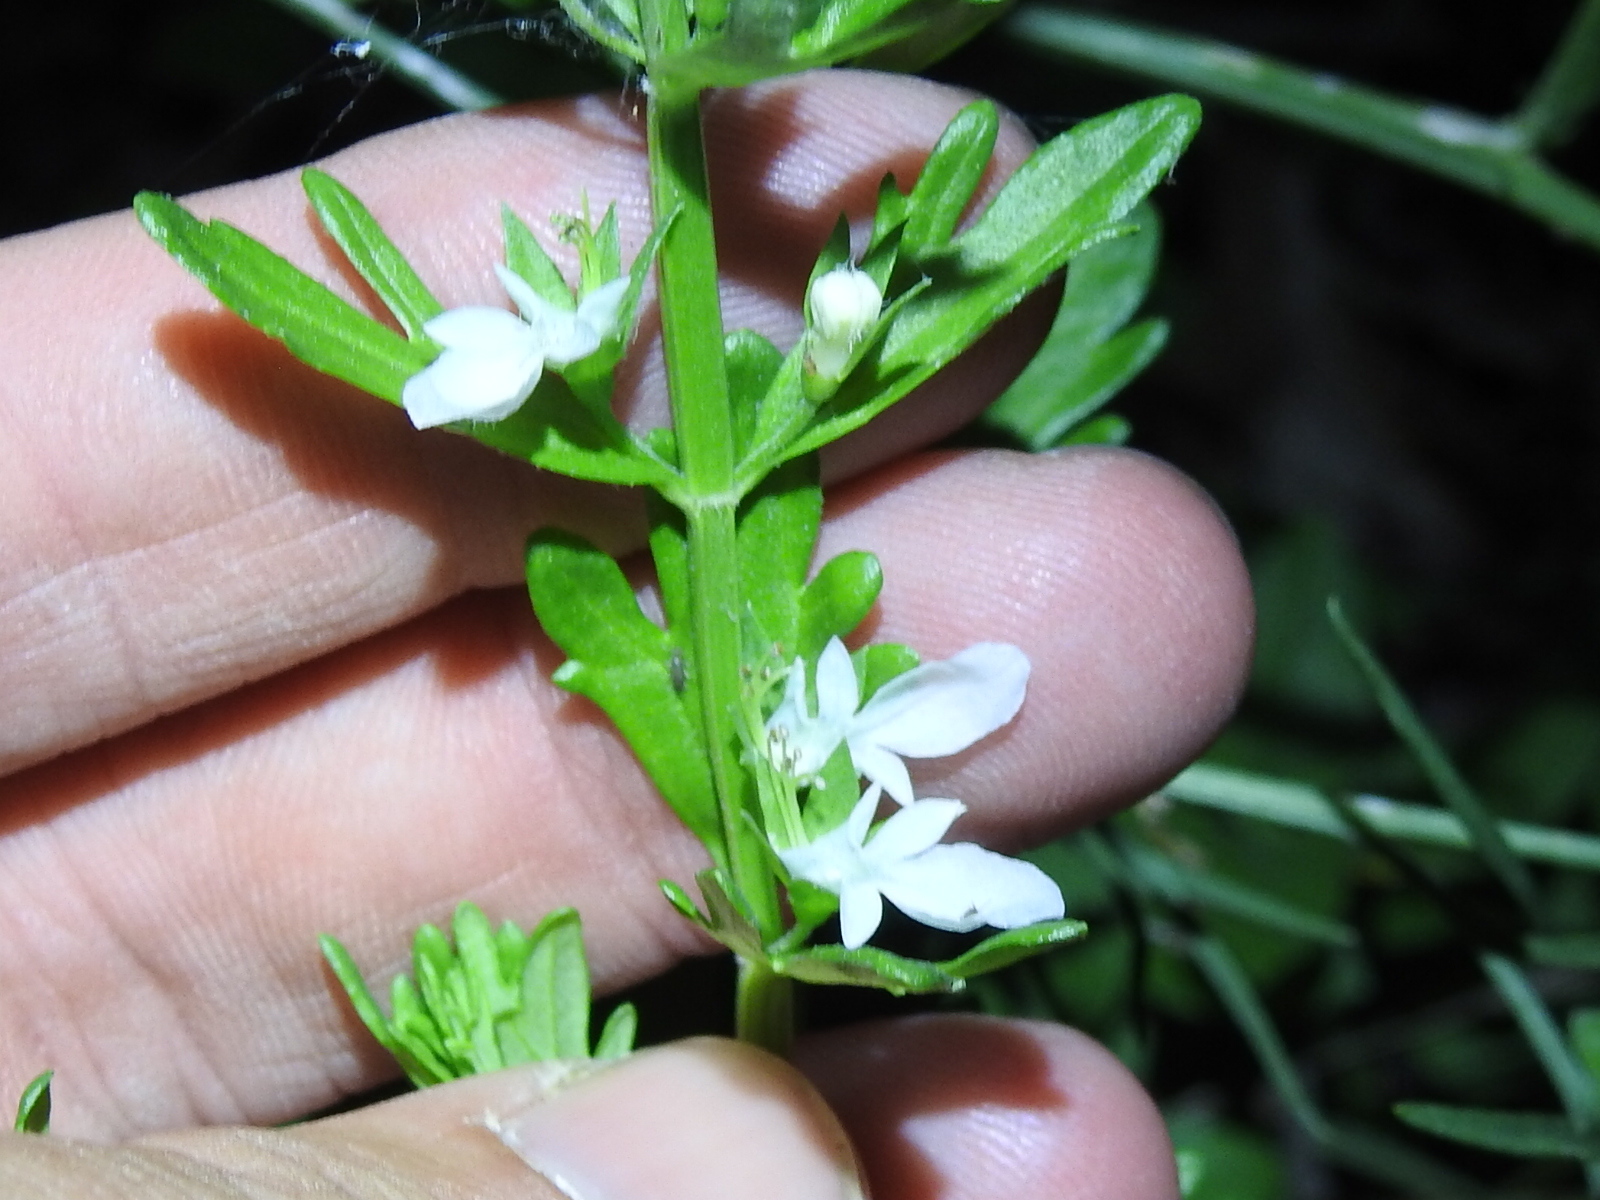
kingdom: Plantae
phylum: Tracheophyta
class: Magnoliopsida
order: Lamiales
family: Lamiaceae
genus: Teucrium
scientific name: Teucrium cubense
